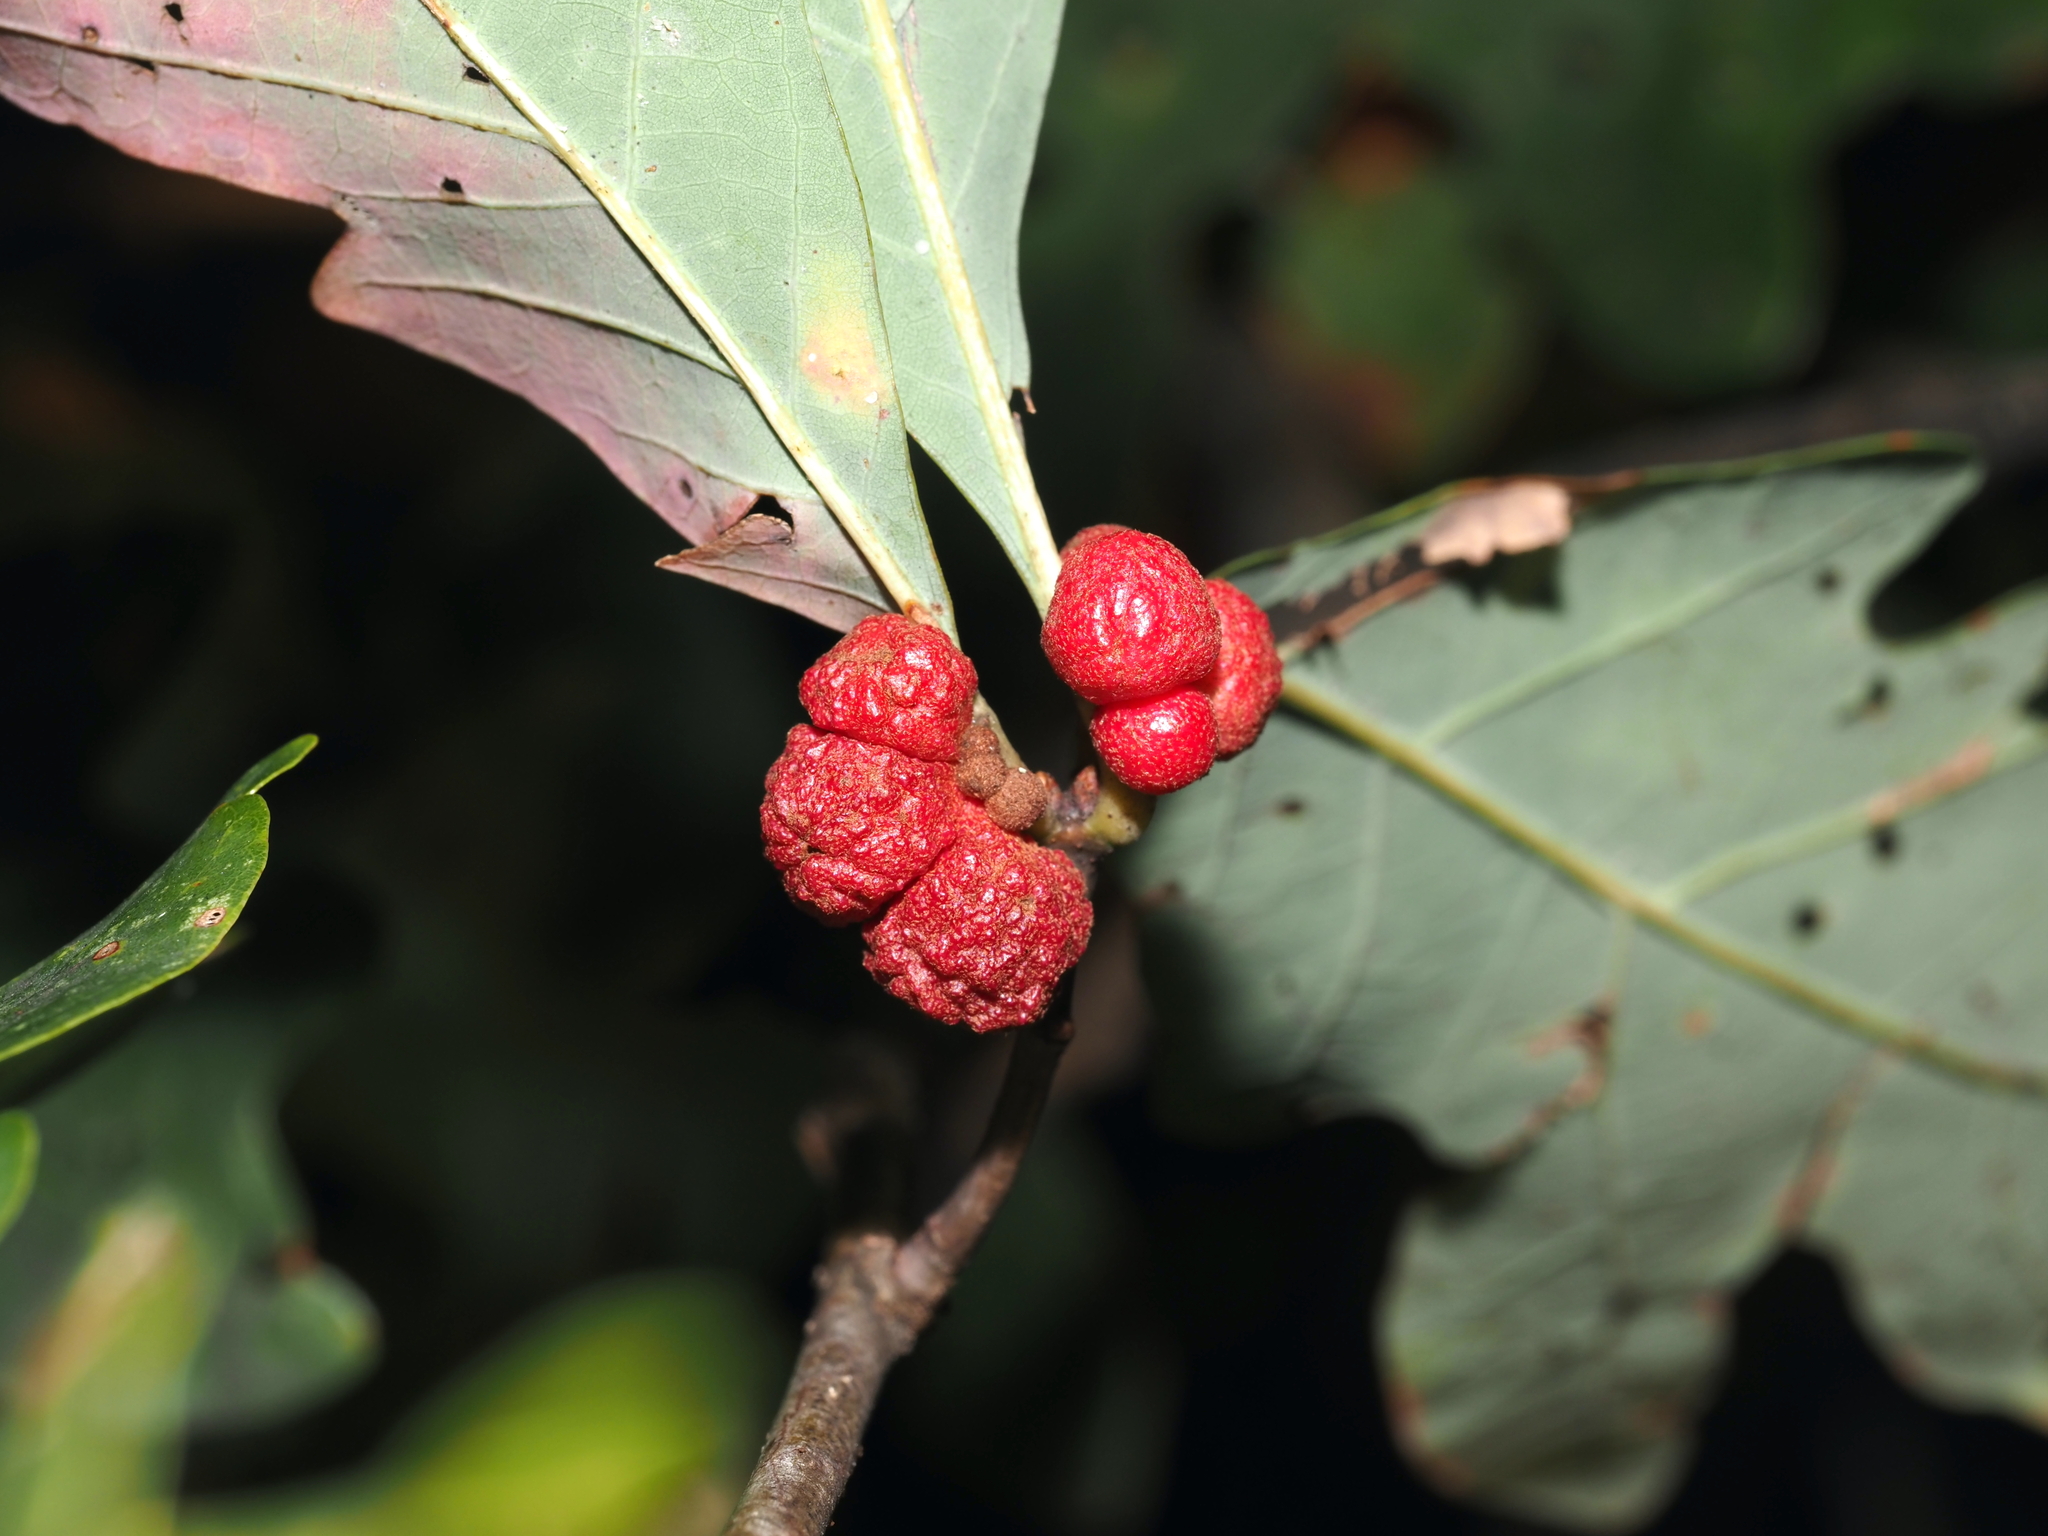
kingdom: Animalia
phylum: Arthropoda
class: Insecta
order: Hymenoptera
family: Cynipidae
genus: Andricus
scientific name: Andricus
